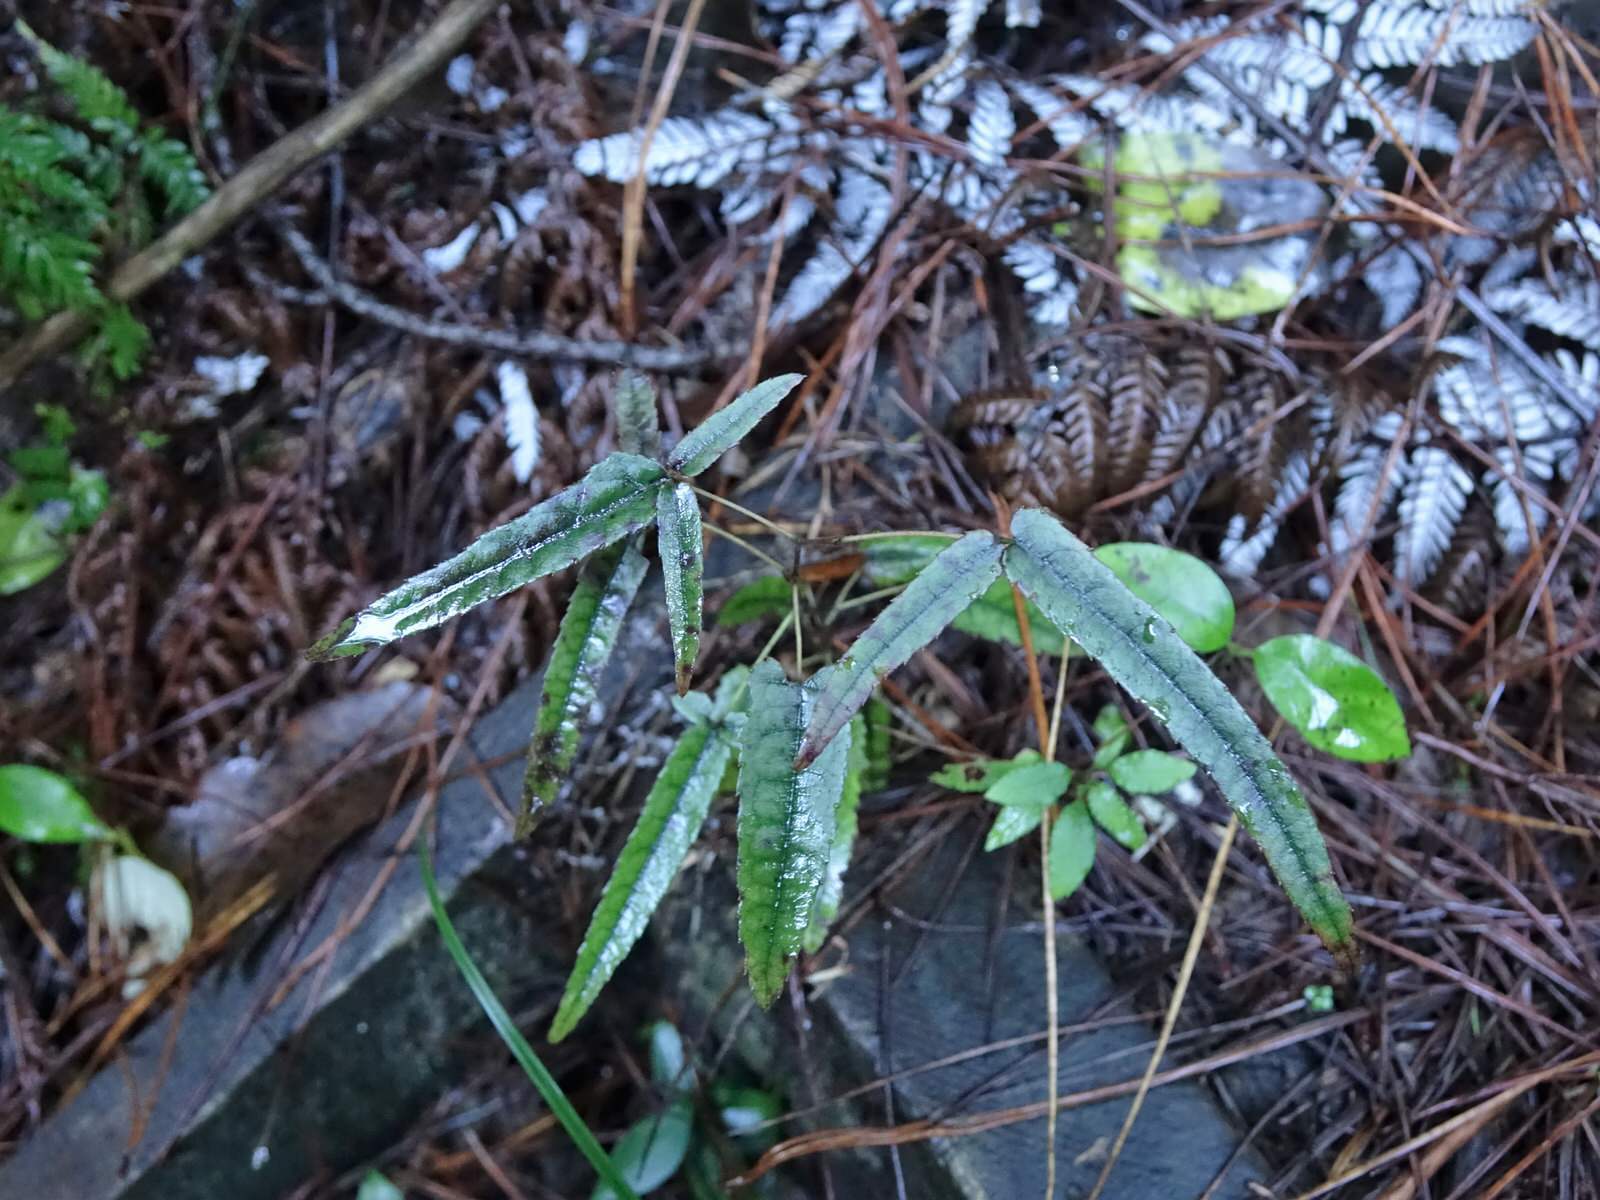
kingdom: Plantae
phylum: Tracheophyta
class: Magnoliopsida
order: Rosales
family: Rosaceae
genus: Rubus
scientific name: Rubus cissoides
